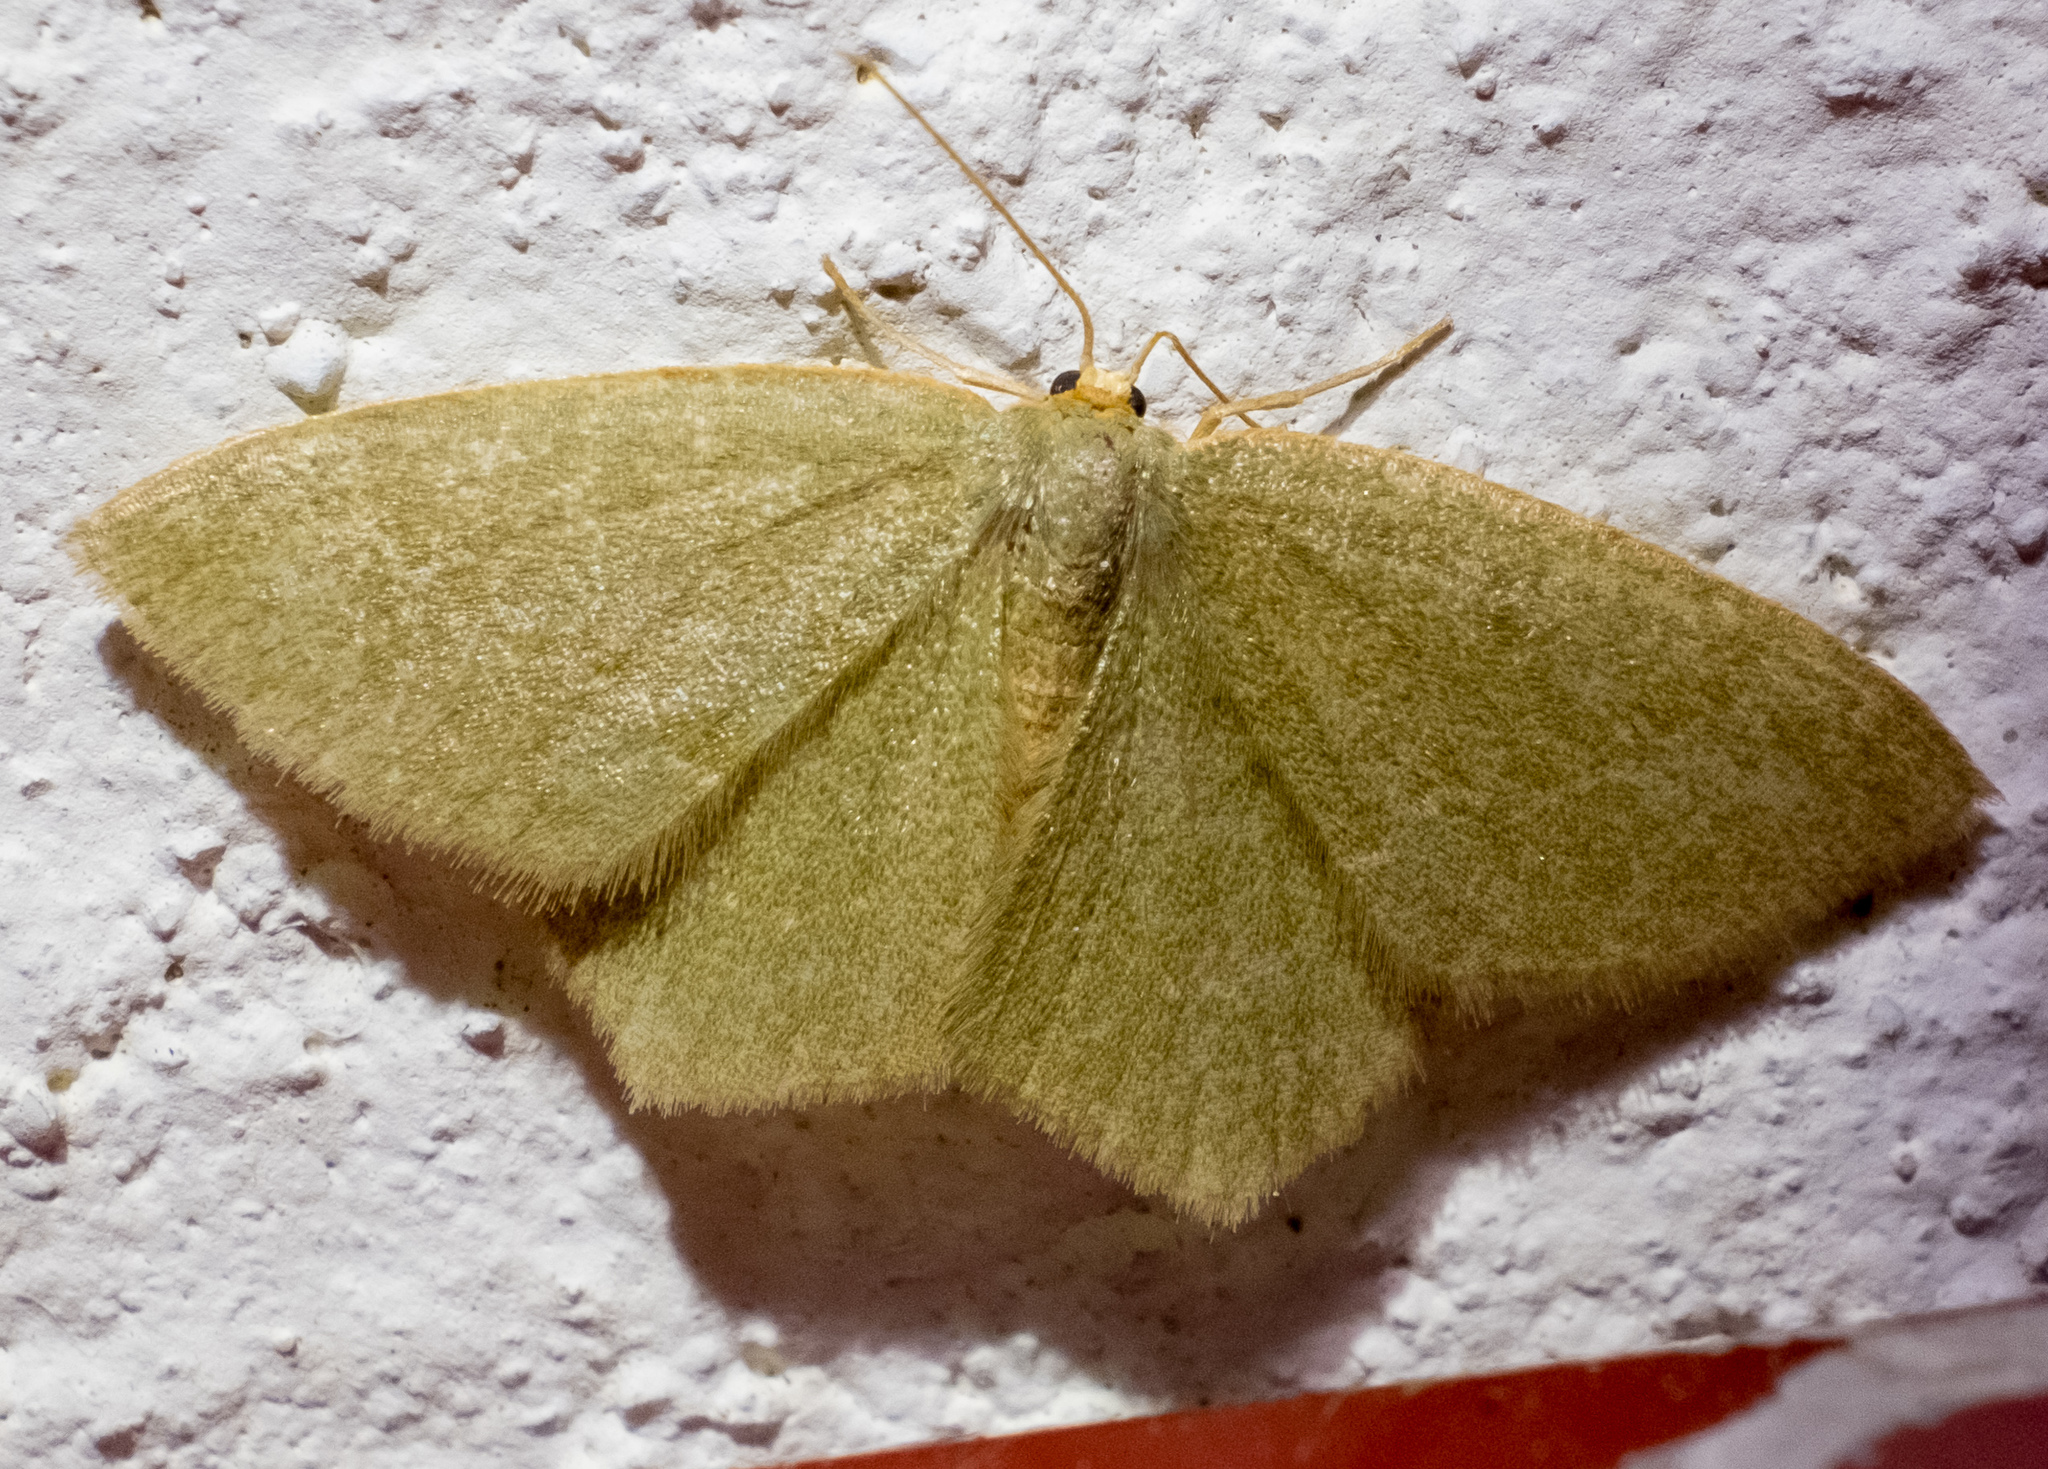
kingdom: Animalia
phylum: Arthropoda
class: Insecta
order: Lepidoptera
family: Geometridae
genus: Thalera
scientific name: Thalera pistasciaria
